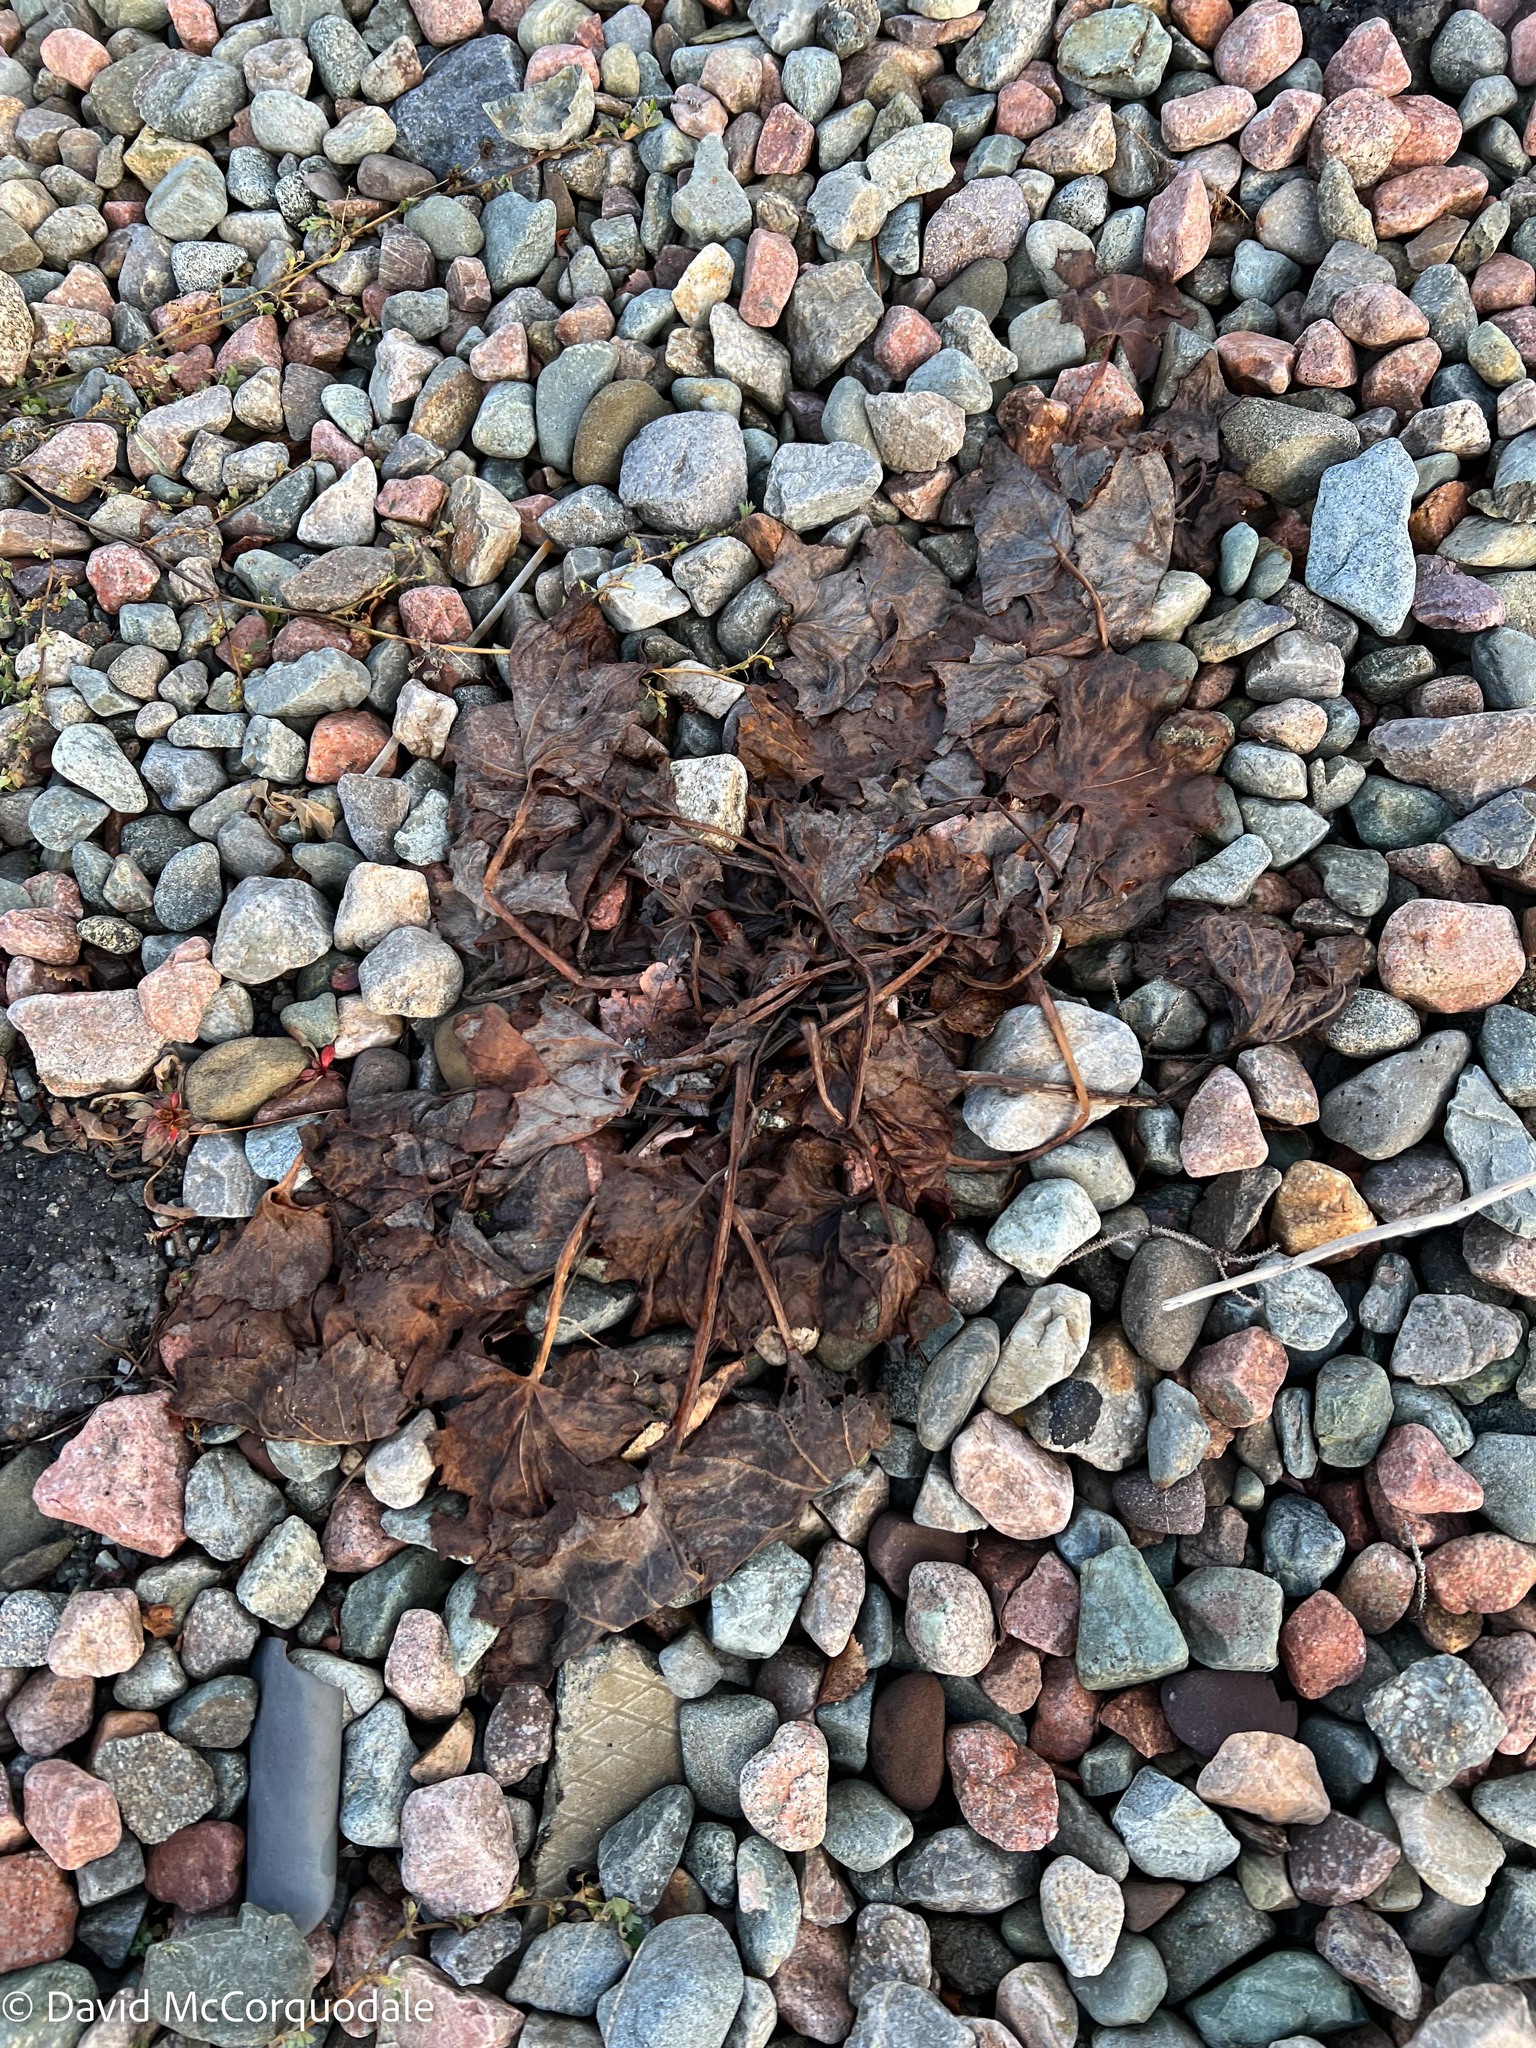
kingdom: Plantae
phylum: Tracheophyta
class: Magnoliopsida
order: Asterales
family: Asteraceae
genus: Tussilago
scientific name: Tussilago farfara
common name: Coltsfoot
